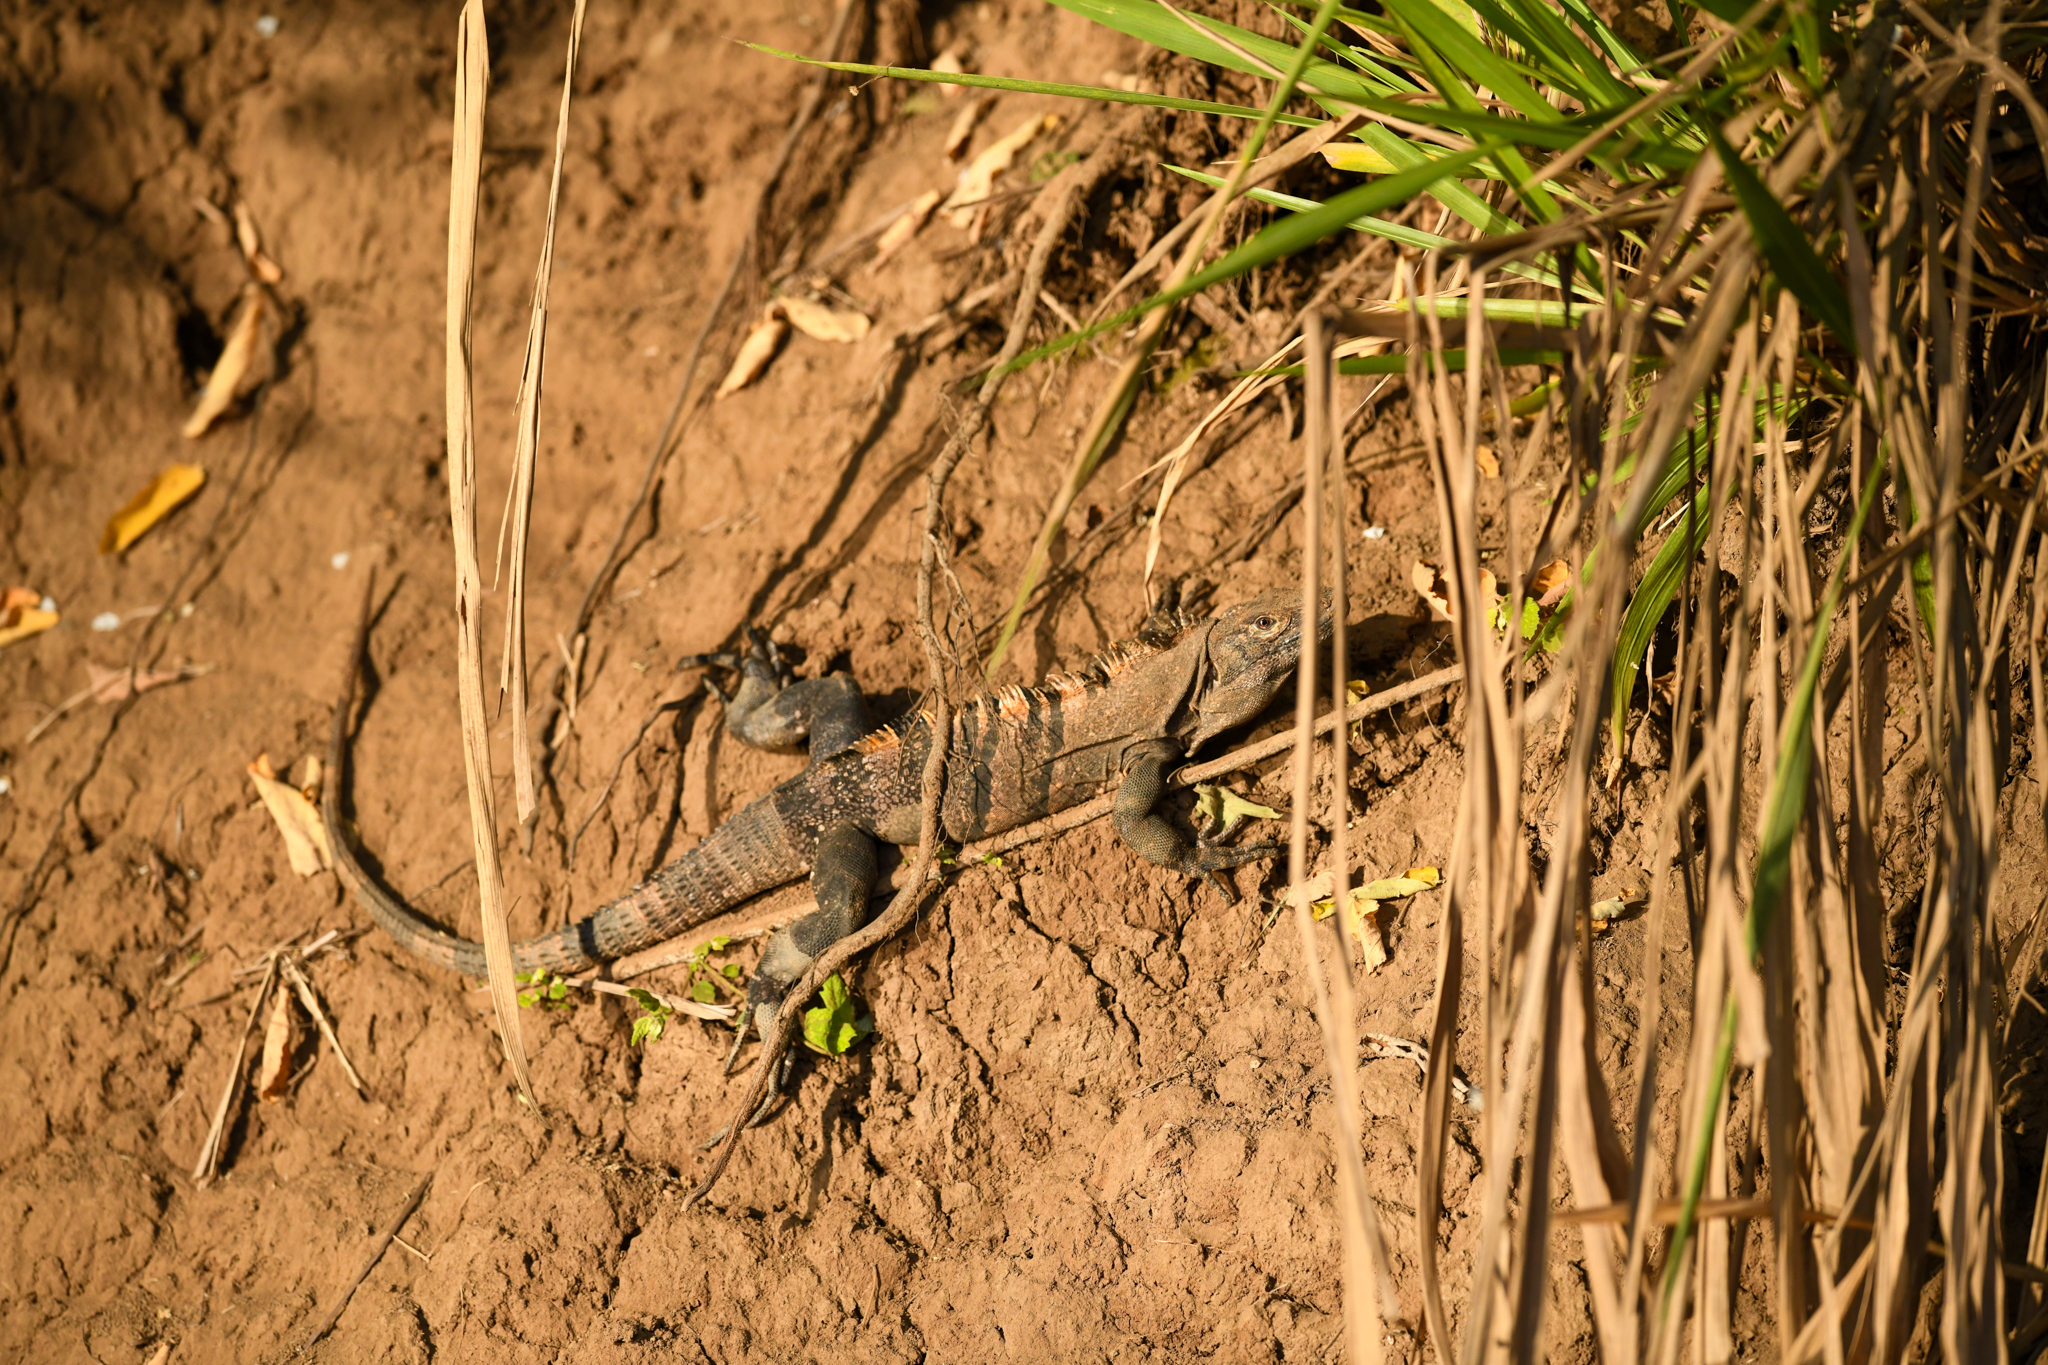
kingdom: Animalia
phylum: Chordata
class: Squamata
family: Iguanidae
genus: Ctenosaura
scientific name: Ctenosaura similis
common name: Black spiny-tailed iguana
